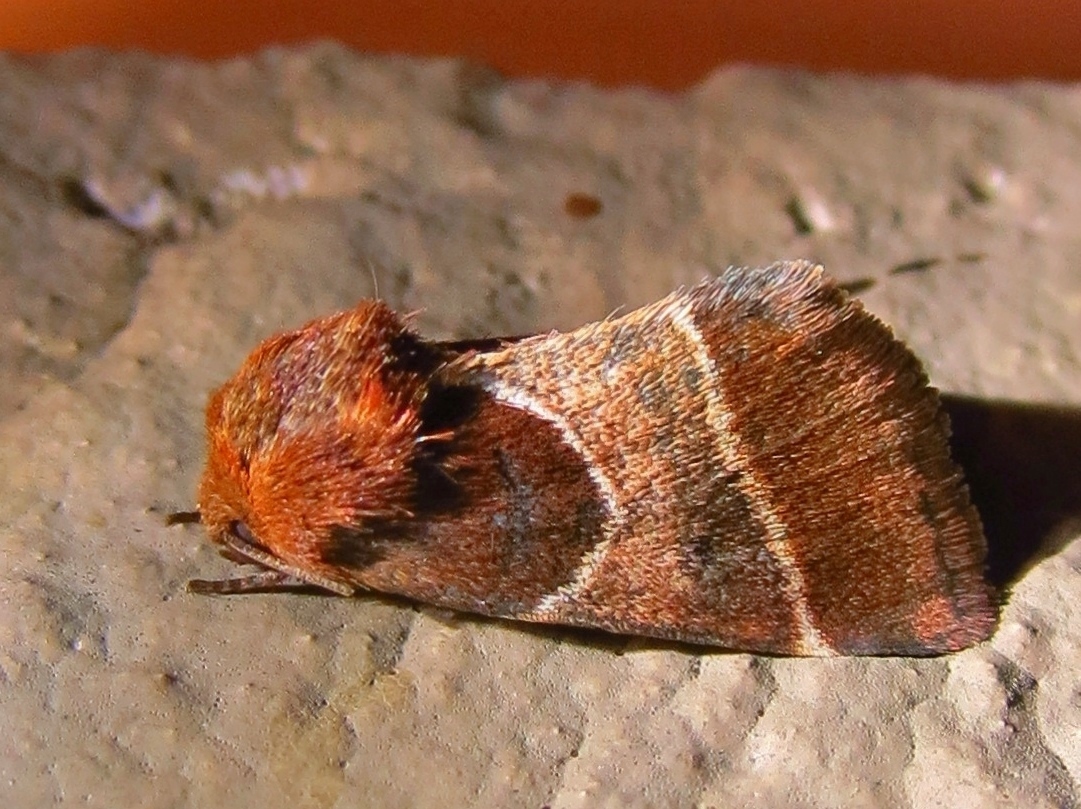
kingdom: Animalia
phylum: Arthropoda
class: Insecta
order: Lepidoptera
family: Noctuidae
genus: Schinia
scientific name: Schinia arcigera
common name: Arcigera flower moth
